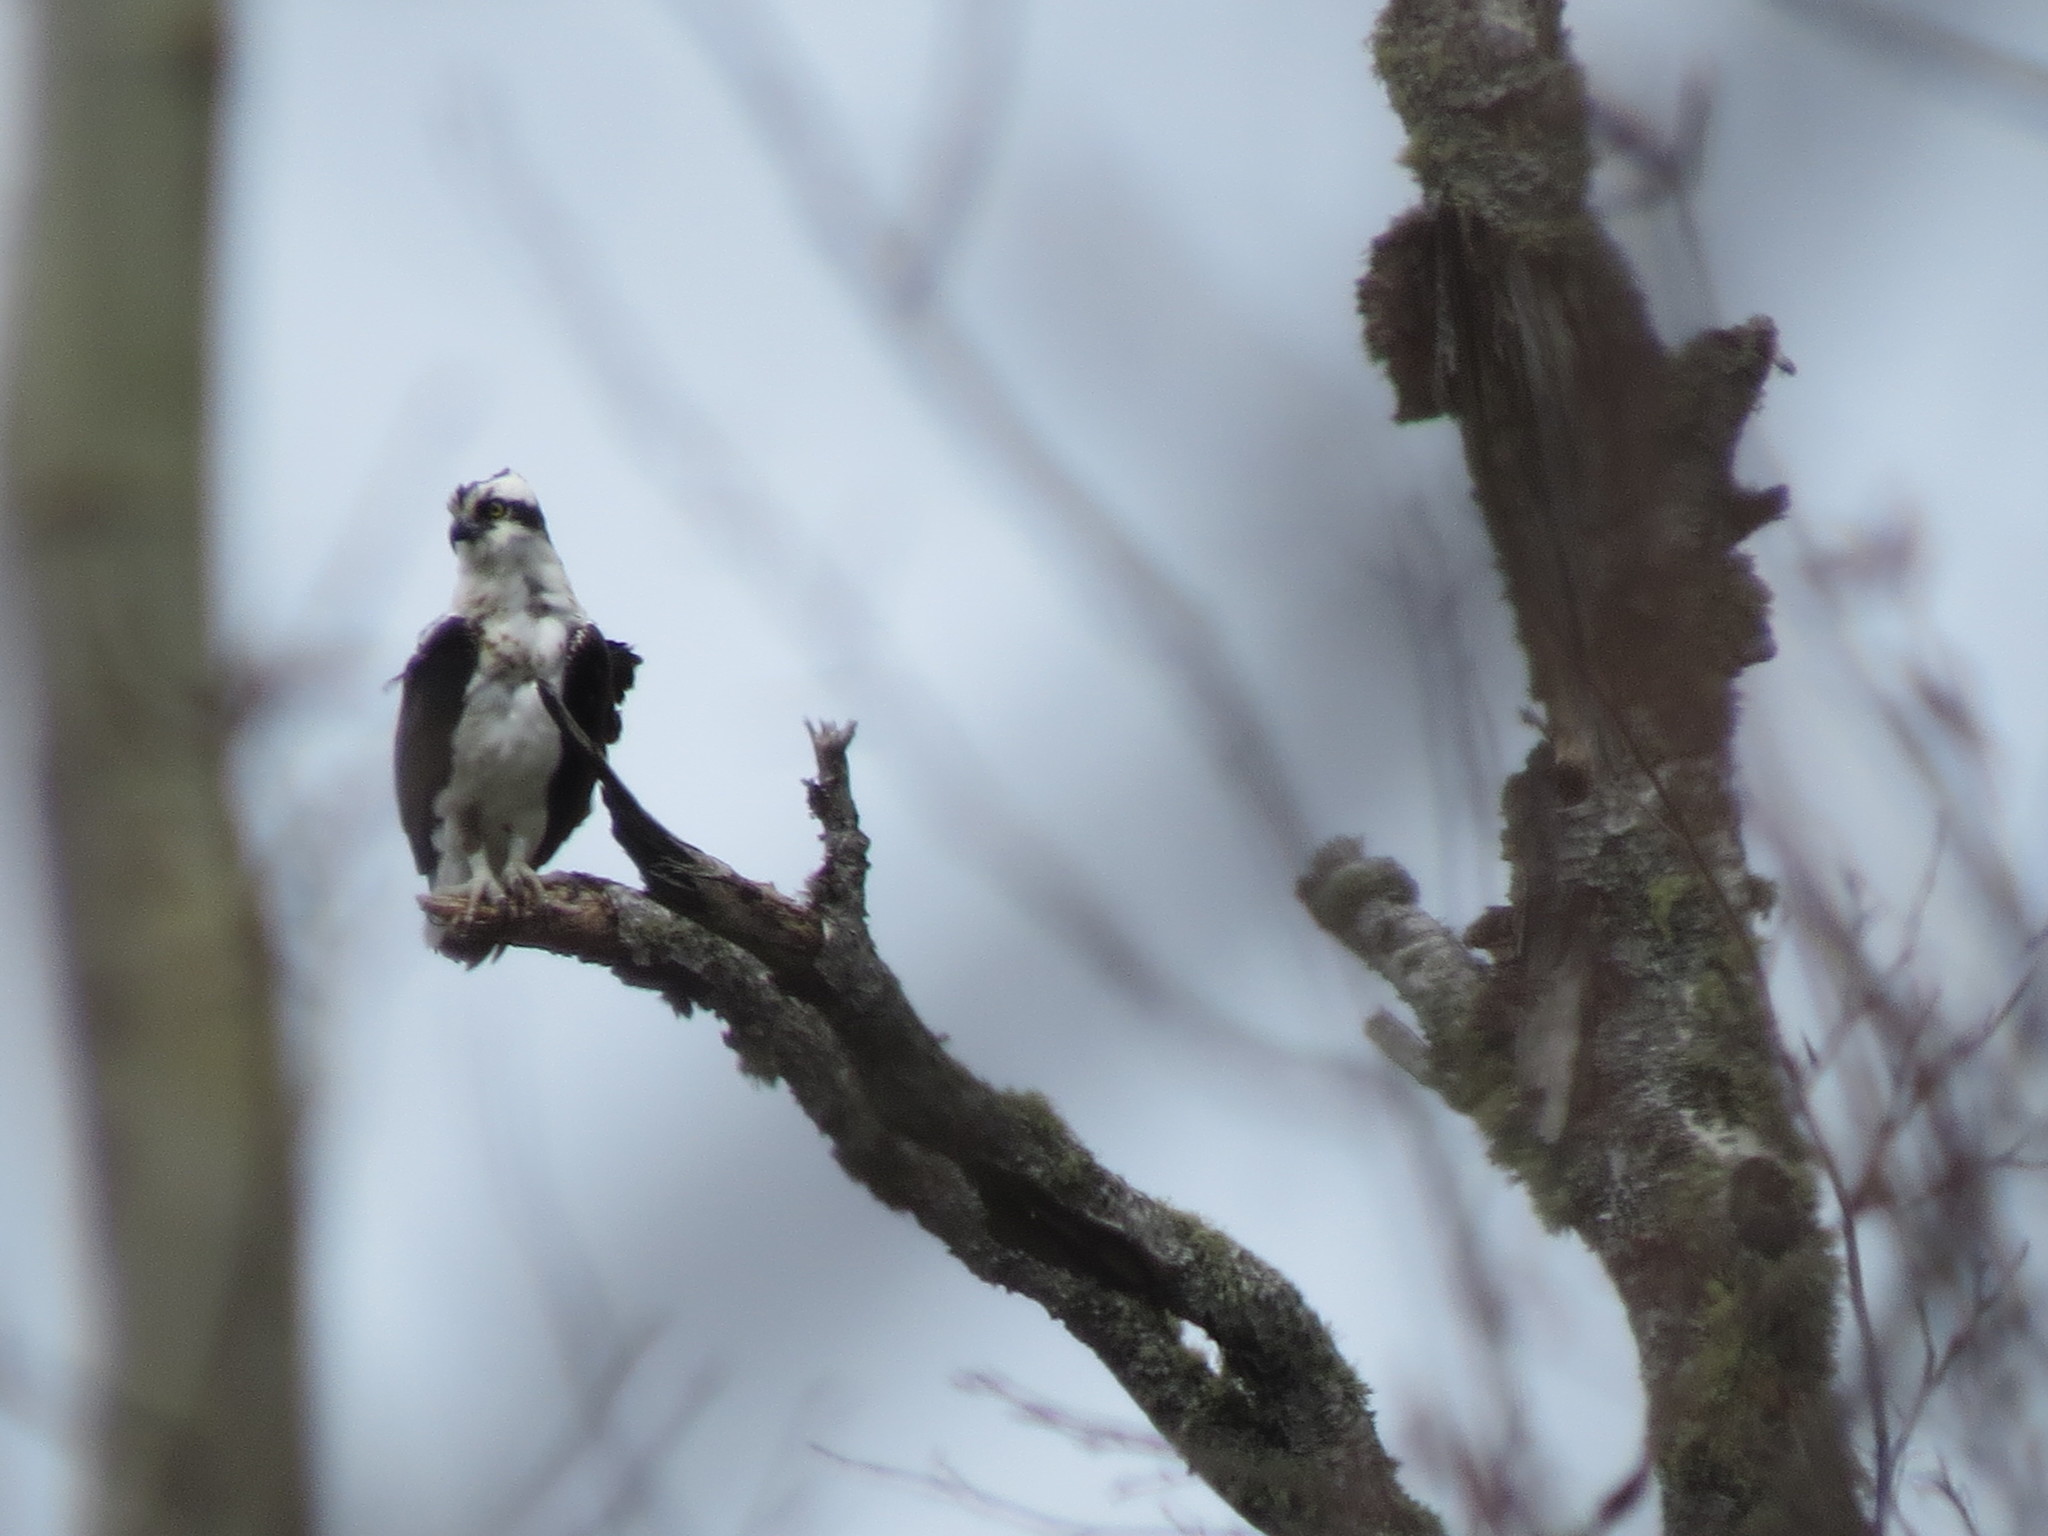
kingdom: Animalia
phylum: Chordata
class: Aves
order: Accipitriformes
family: Pandionidae
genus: Pandion
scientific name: Pandion haliaetus
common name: Osprey
